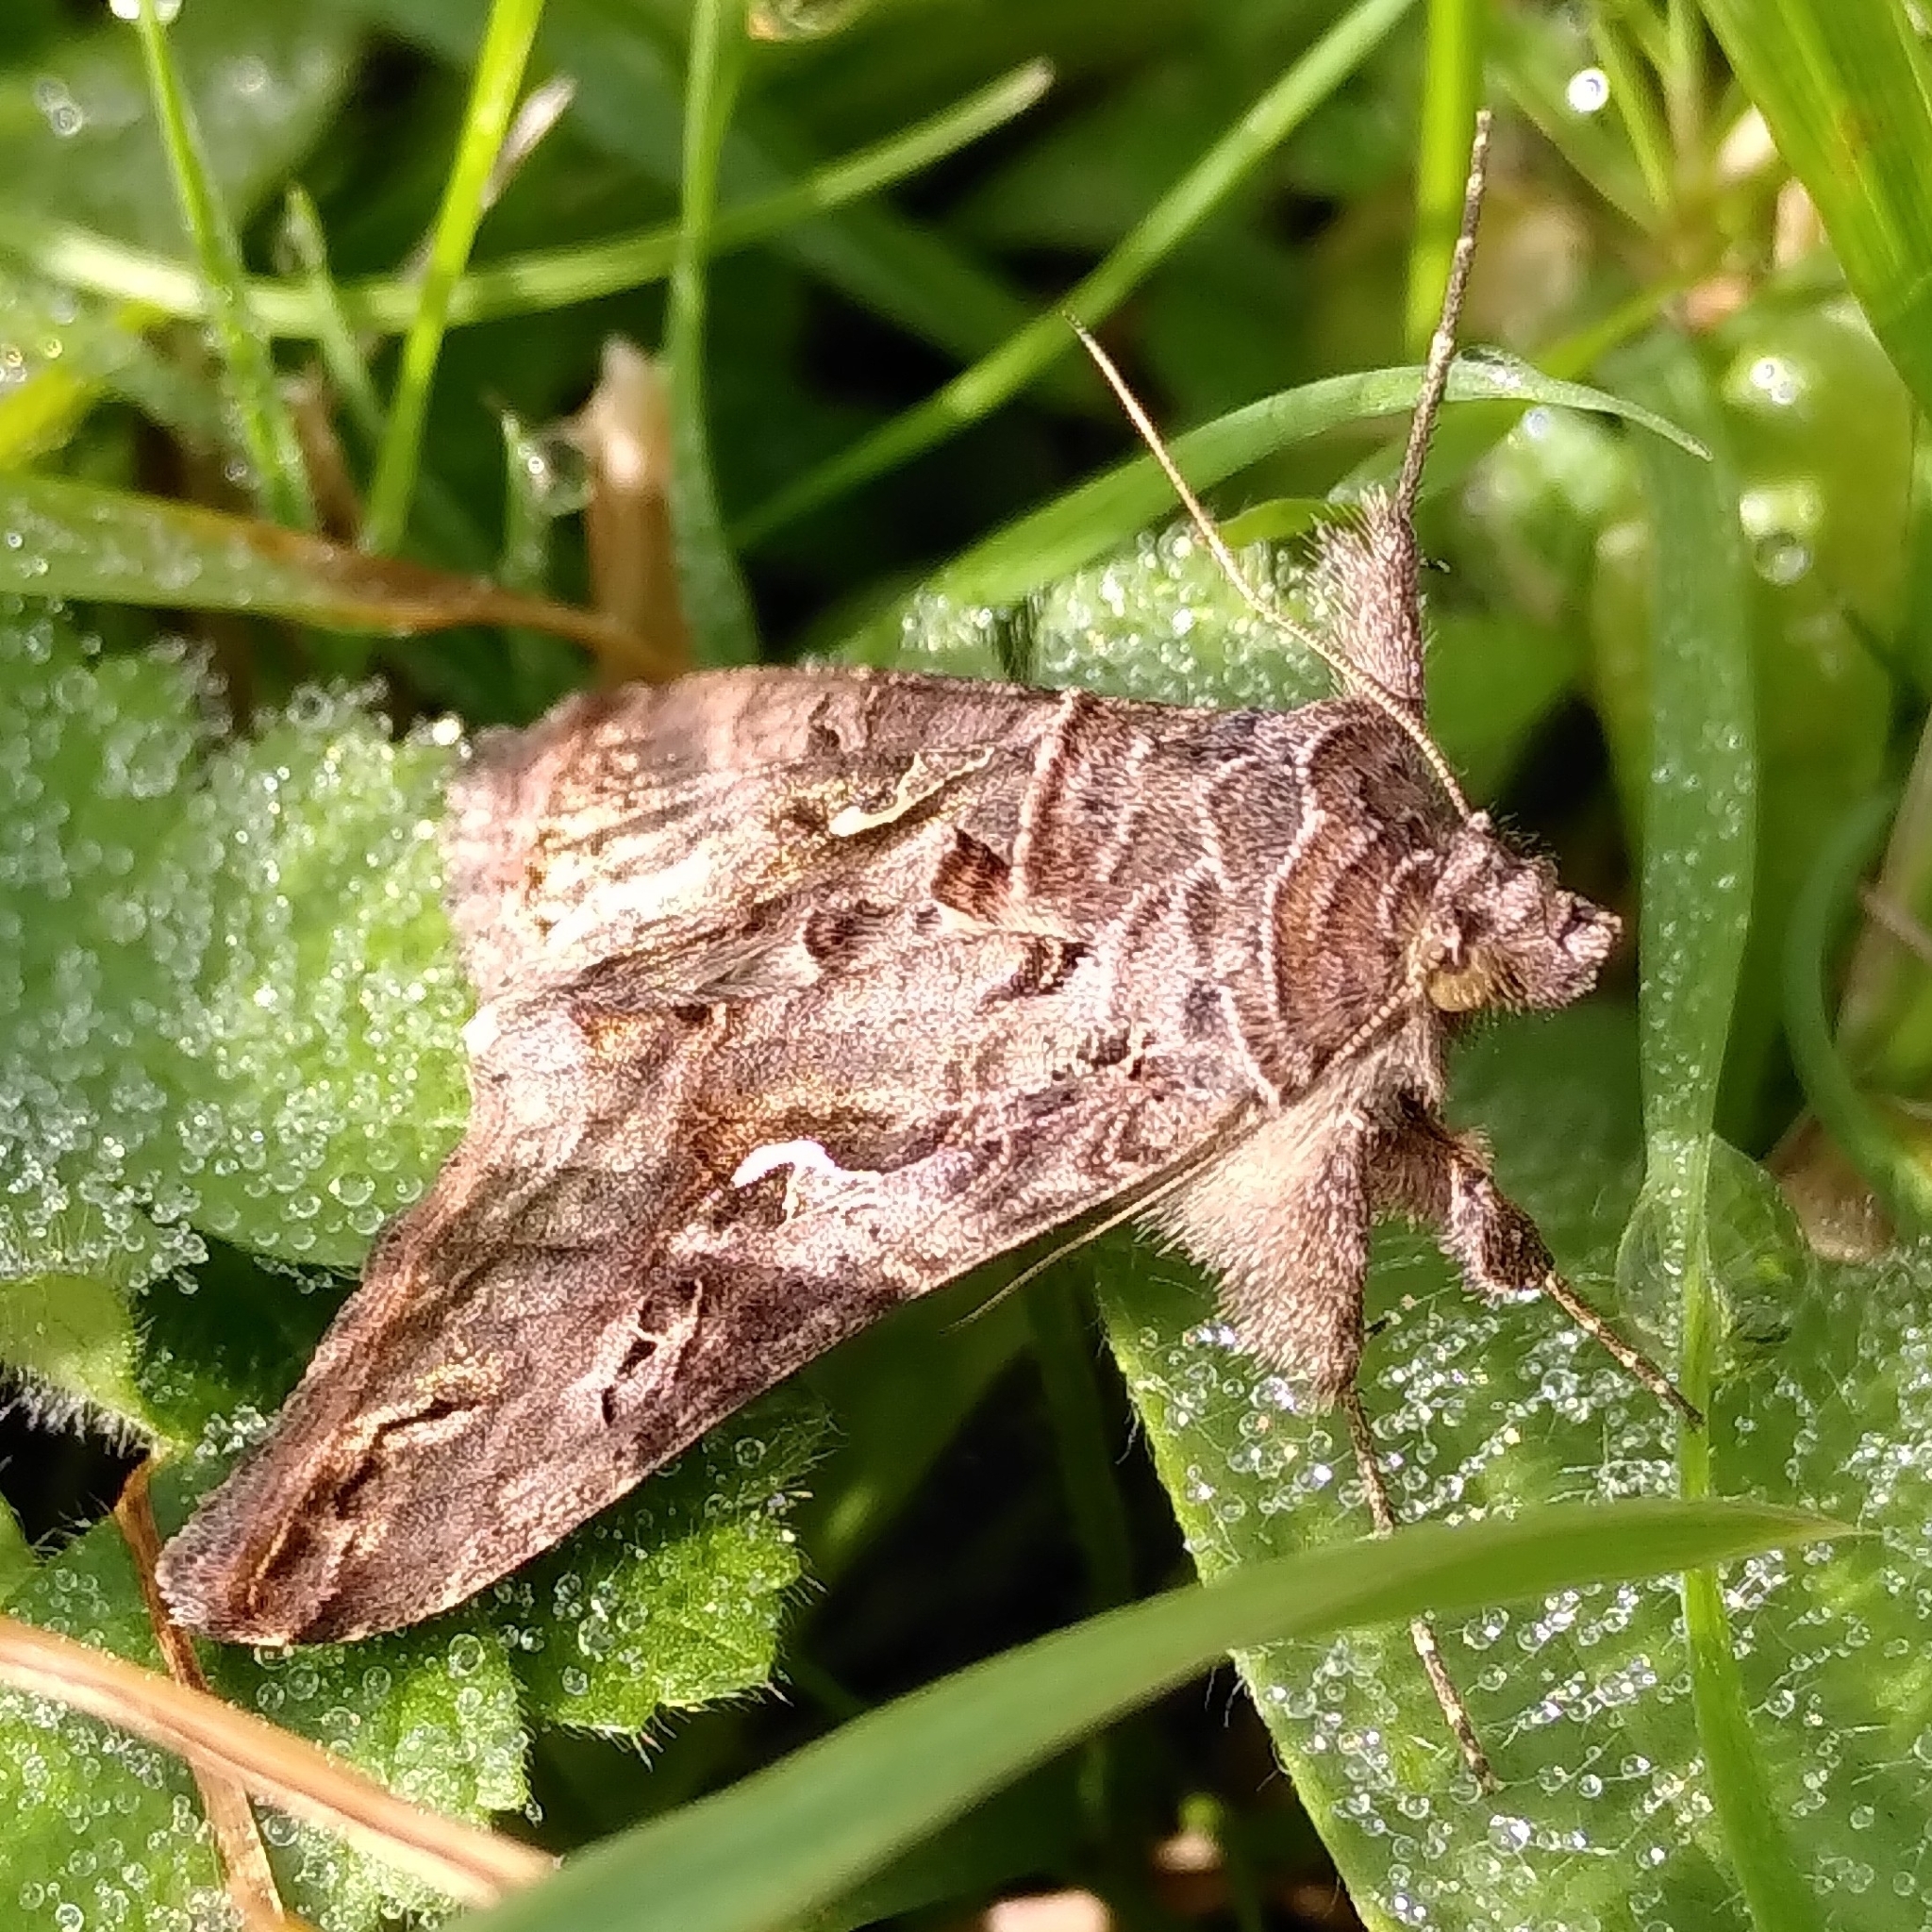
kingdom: Animalia
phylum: Arthropoda
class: Insecta
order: Lepidoptera
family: Noctuidae
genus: Autographa
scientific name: Autographa gamma
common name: Silver y
